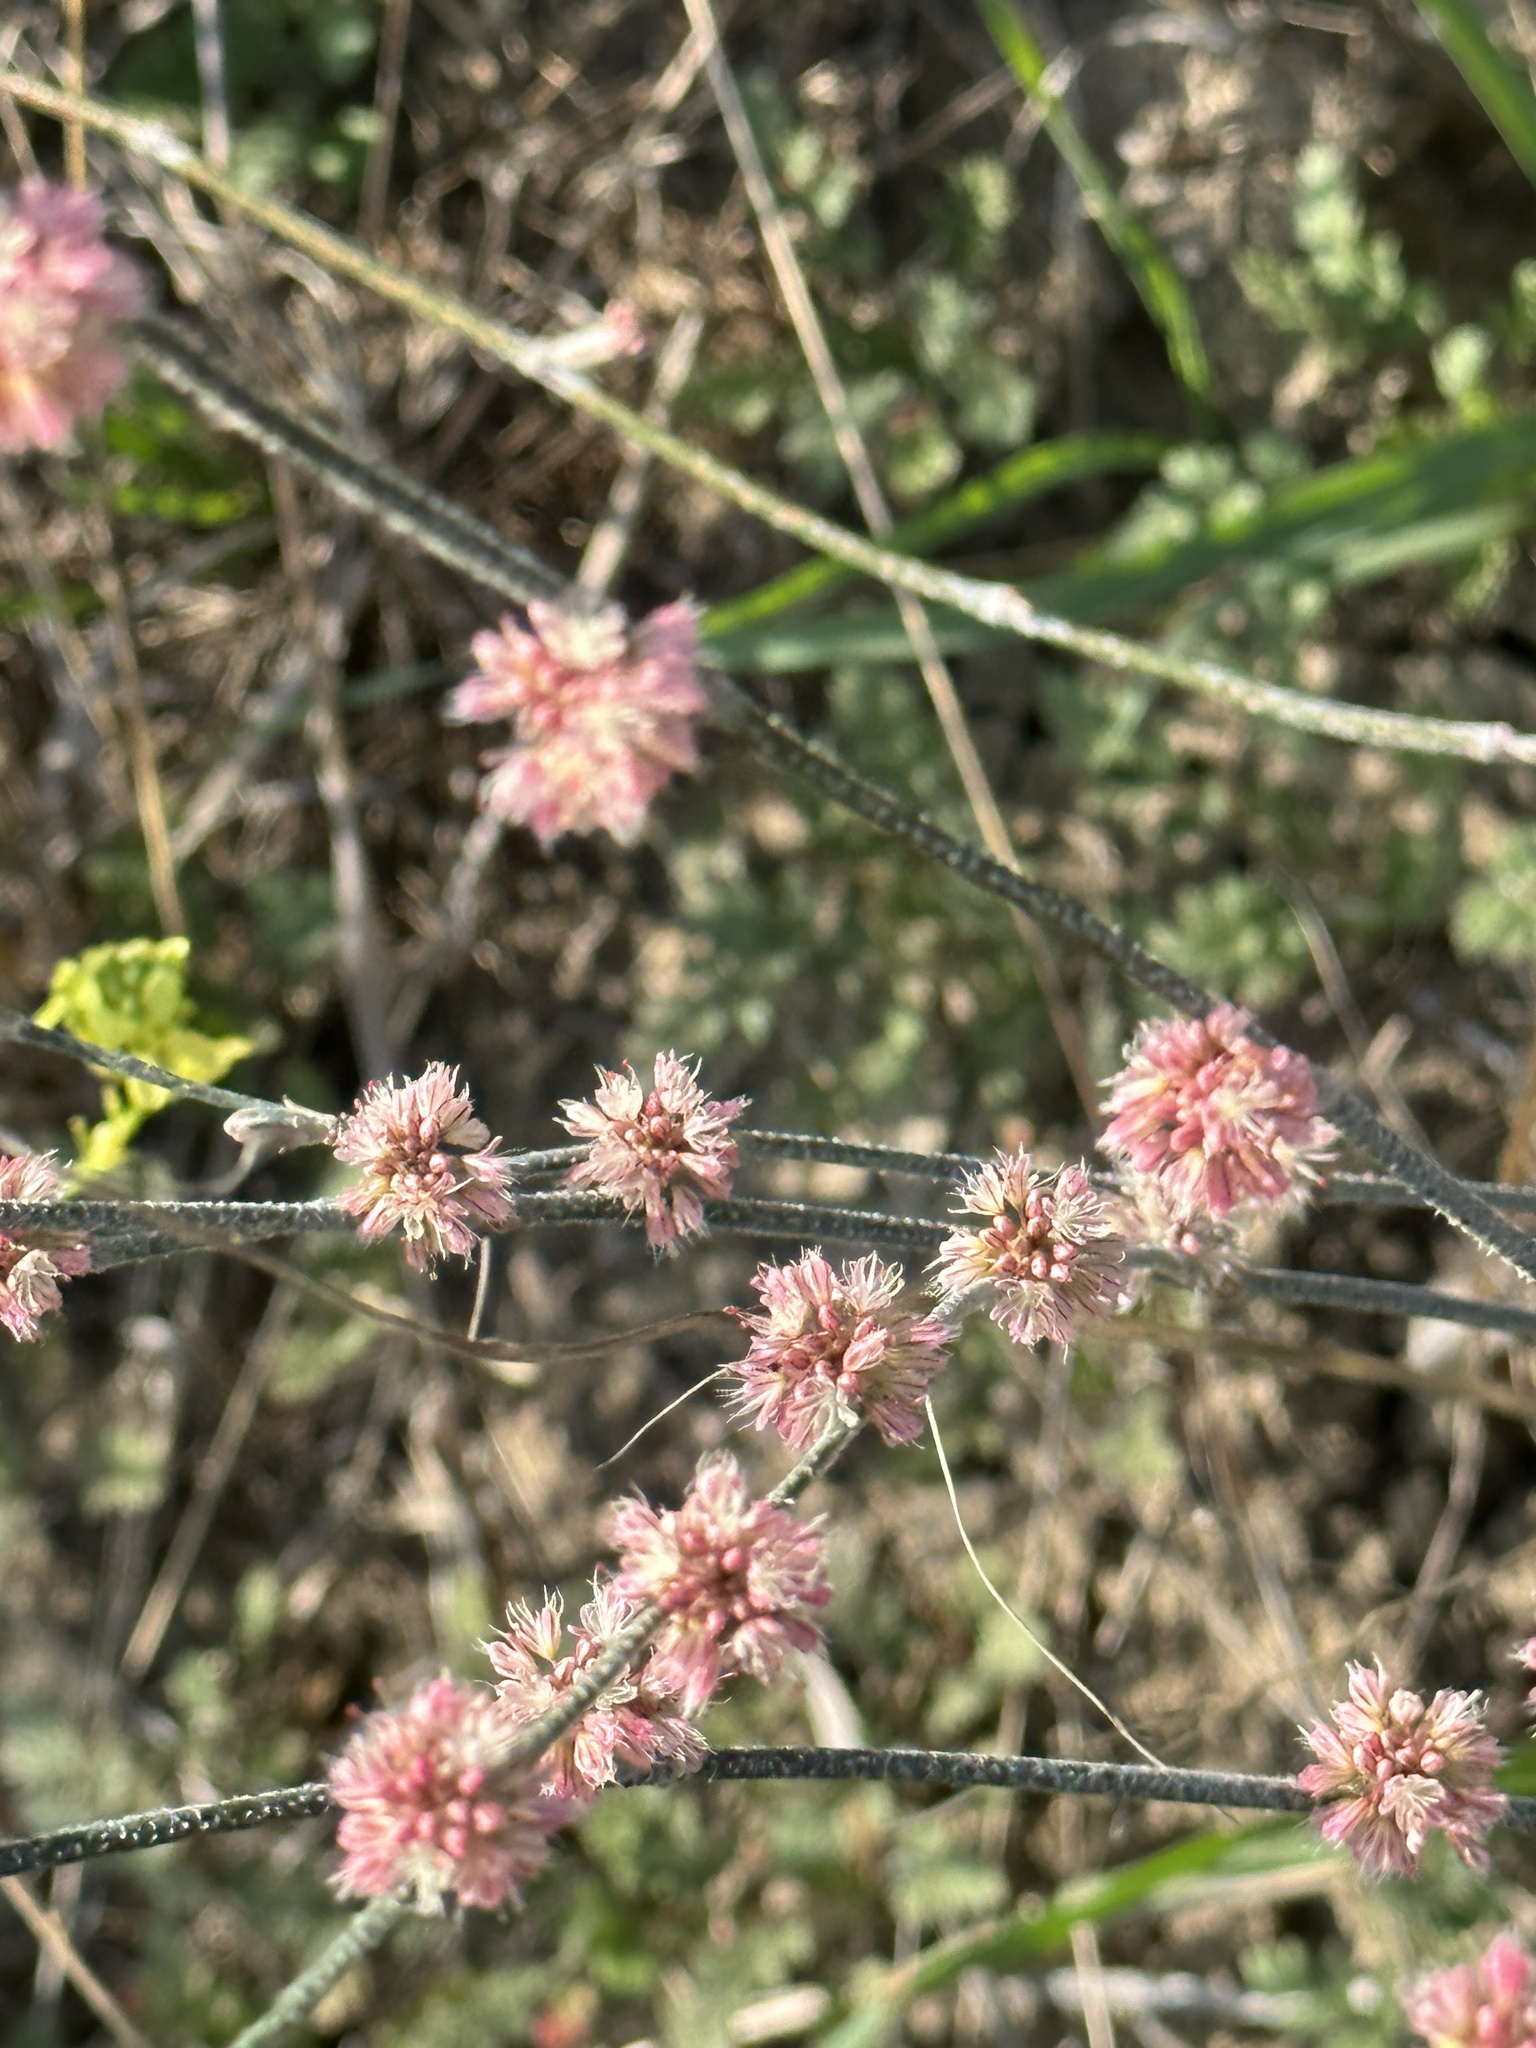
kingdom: Plantae
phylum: Tracheophyta
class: Magnoliopsida
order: Caryophyllales
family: Polygonaceae
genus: Eriogonum
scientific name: Eriogonum elongatum
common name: Long-stem wild buckwheat
